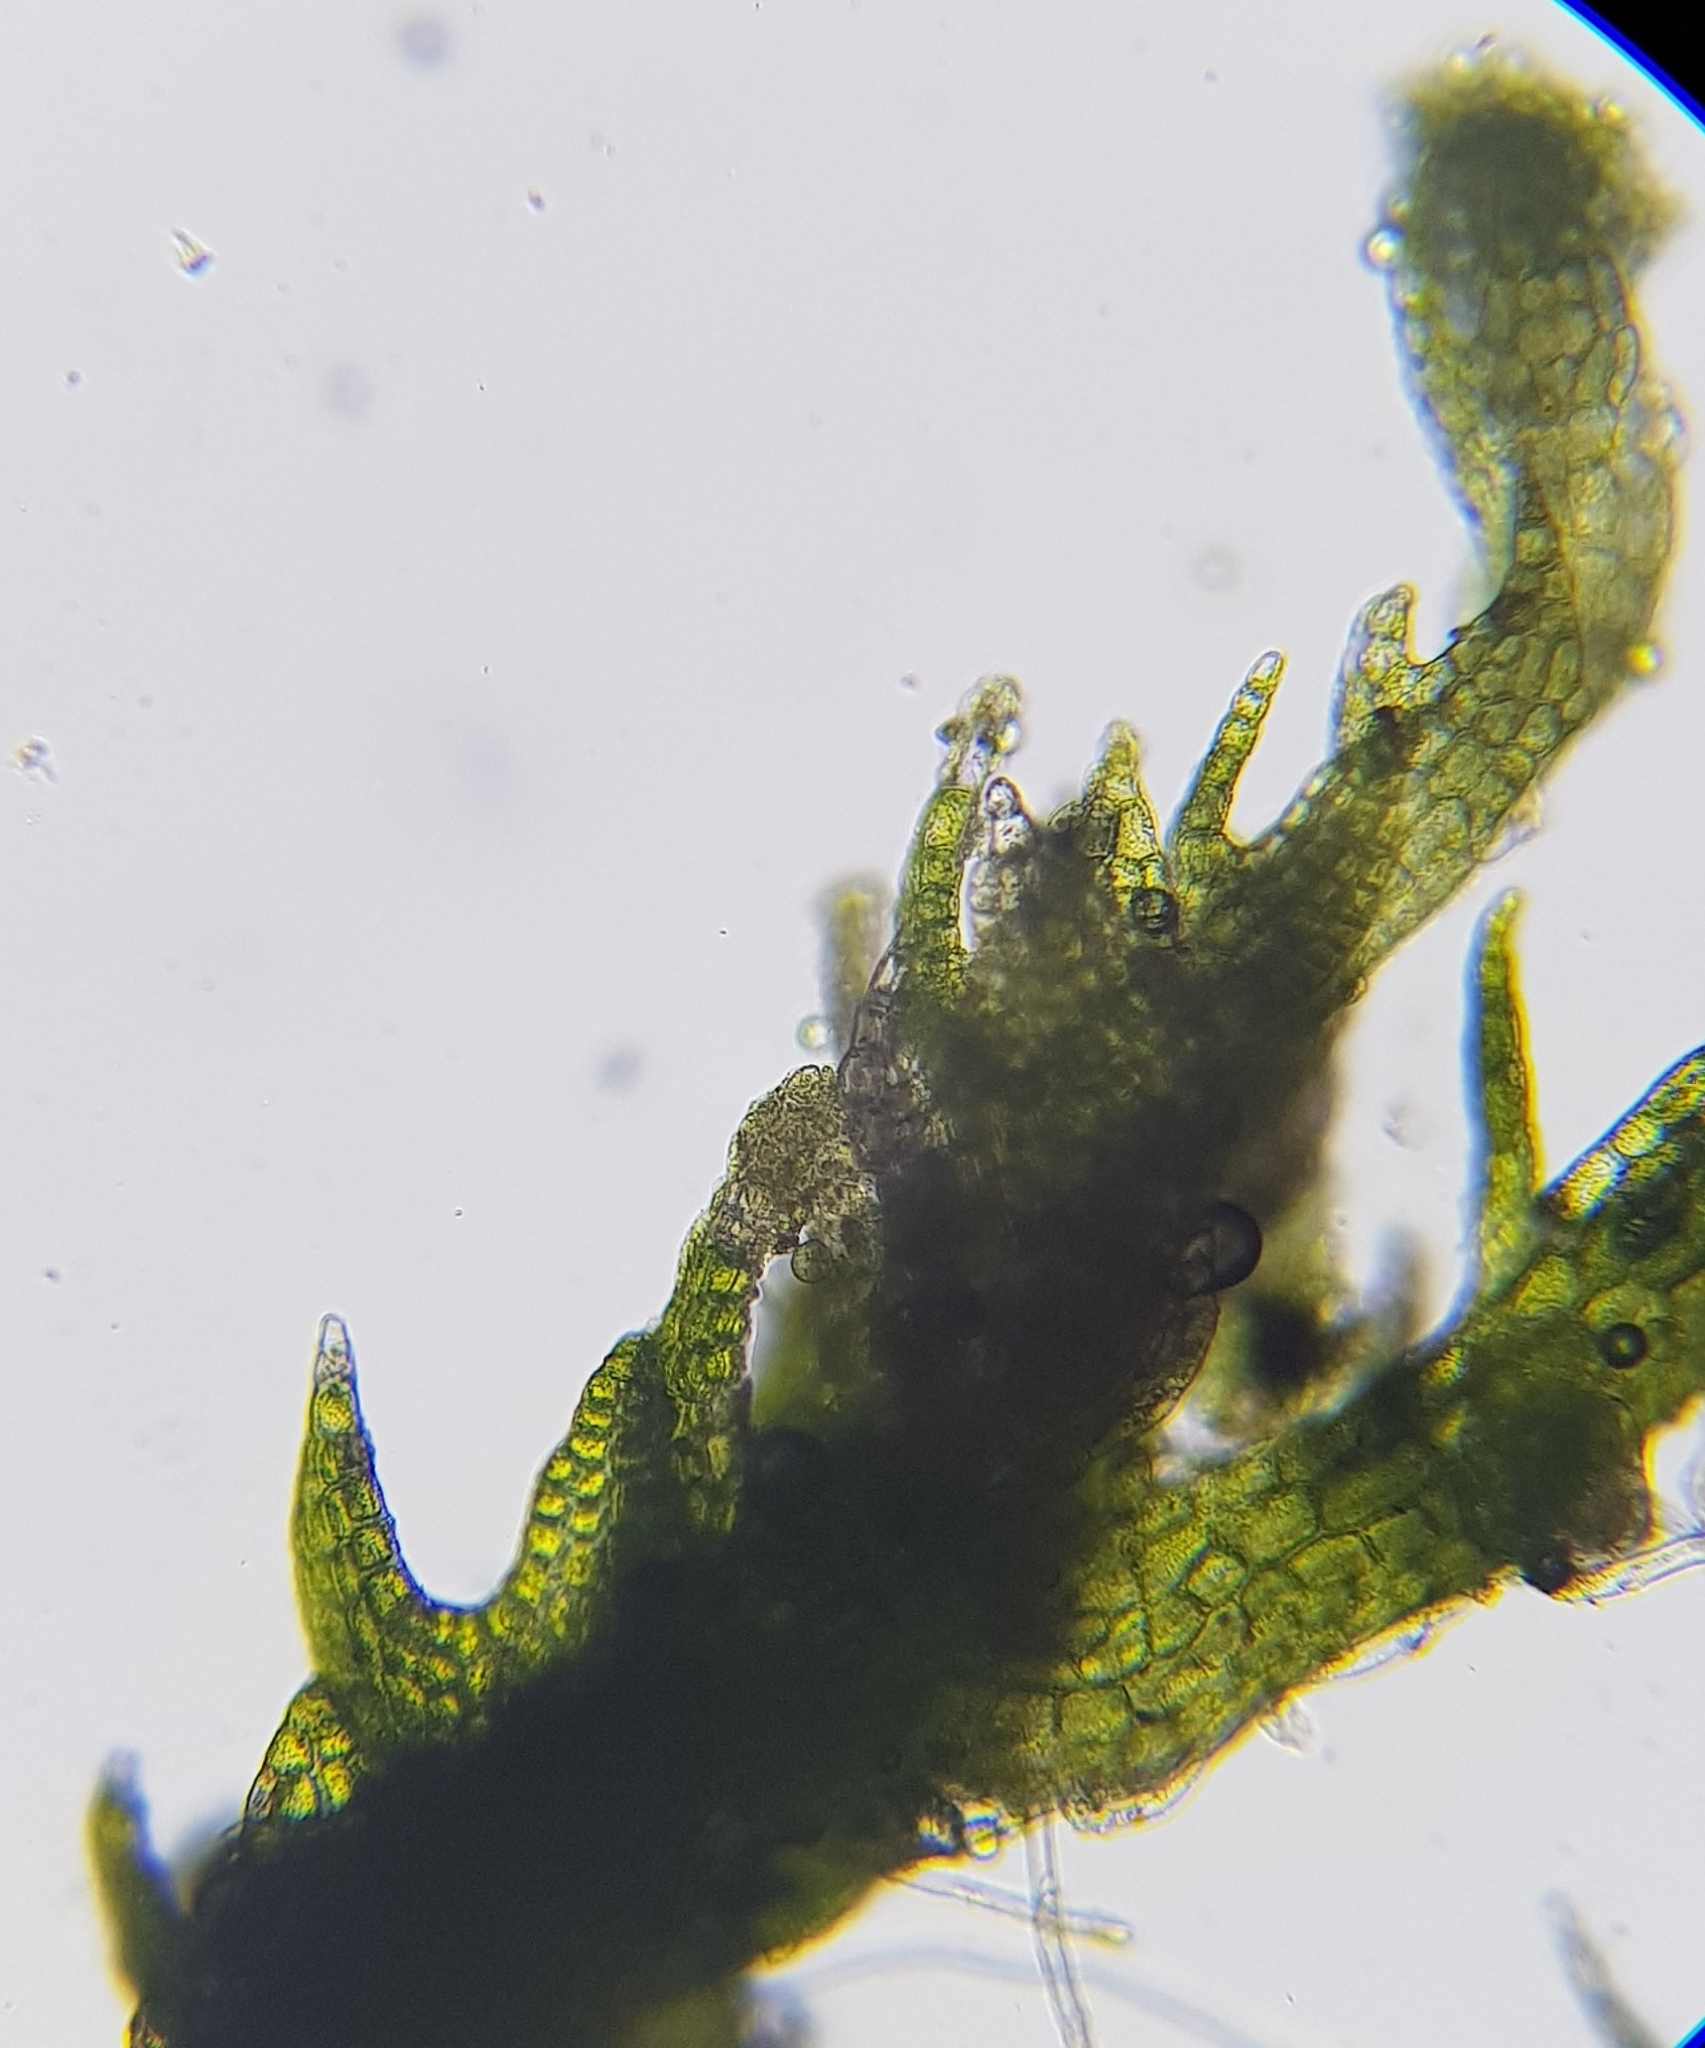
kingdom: Plantae
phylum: Marchantiophyta
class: Jungermanniopsida
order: Jungermanniales
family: Cephaloziaceae
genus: Cephalozia
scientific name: Cephalozia bicuspidata
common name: Two-horned pincerwort
